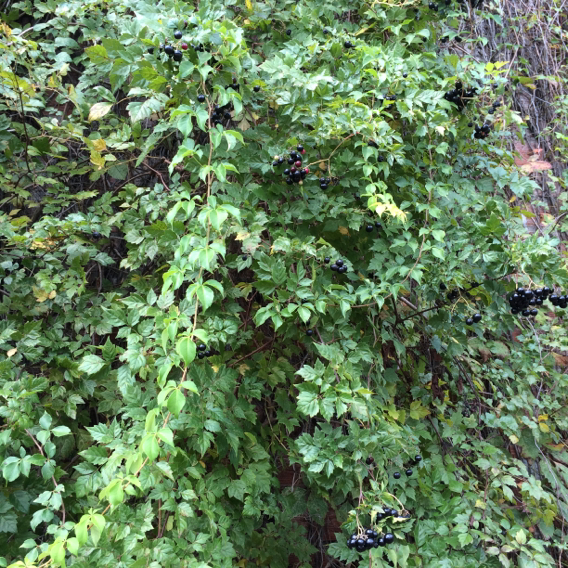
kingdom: Plantae
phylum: Tracheophyta
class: Magnoliopsida
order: Vitales
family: Vitaceae
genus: Nekemias
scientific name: Nekemias arborea
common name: Peppervine
